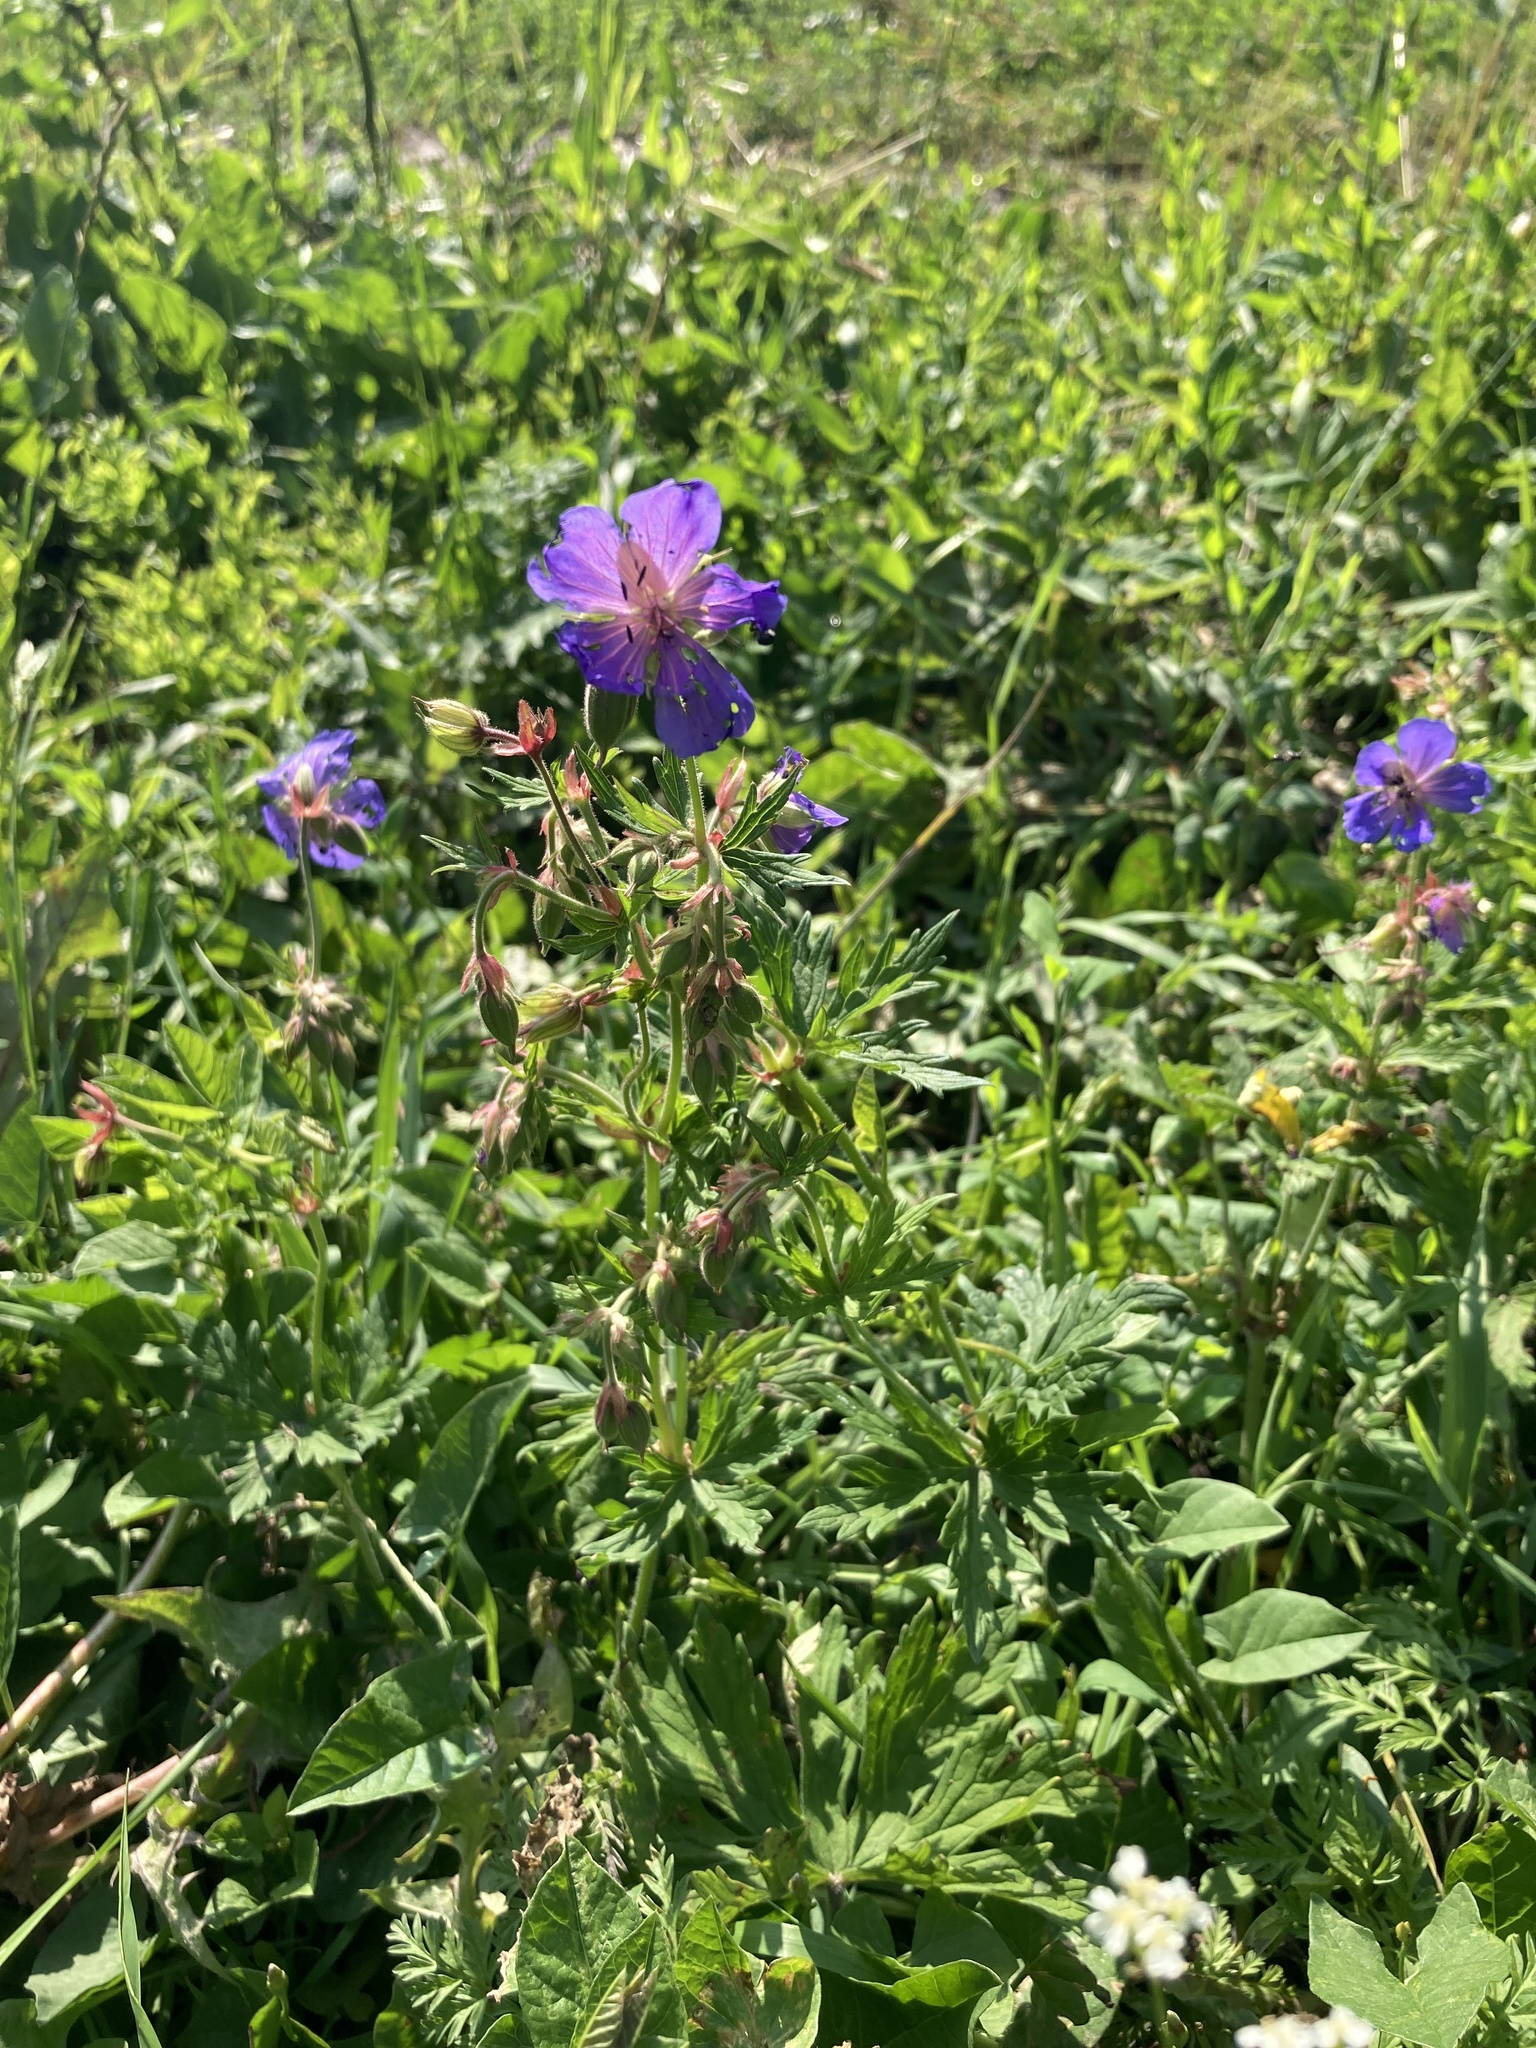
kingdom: Plantae
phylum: Tracheophyta
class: Magnoliopsida
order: Geraniales
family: Geraniaceae
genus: Geranium
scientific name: Geranium pratense
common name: Meadow crane's-bill
